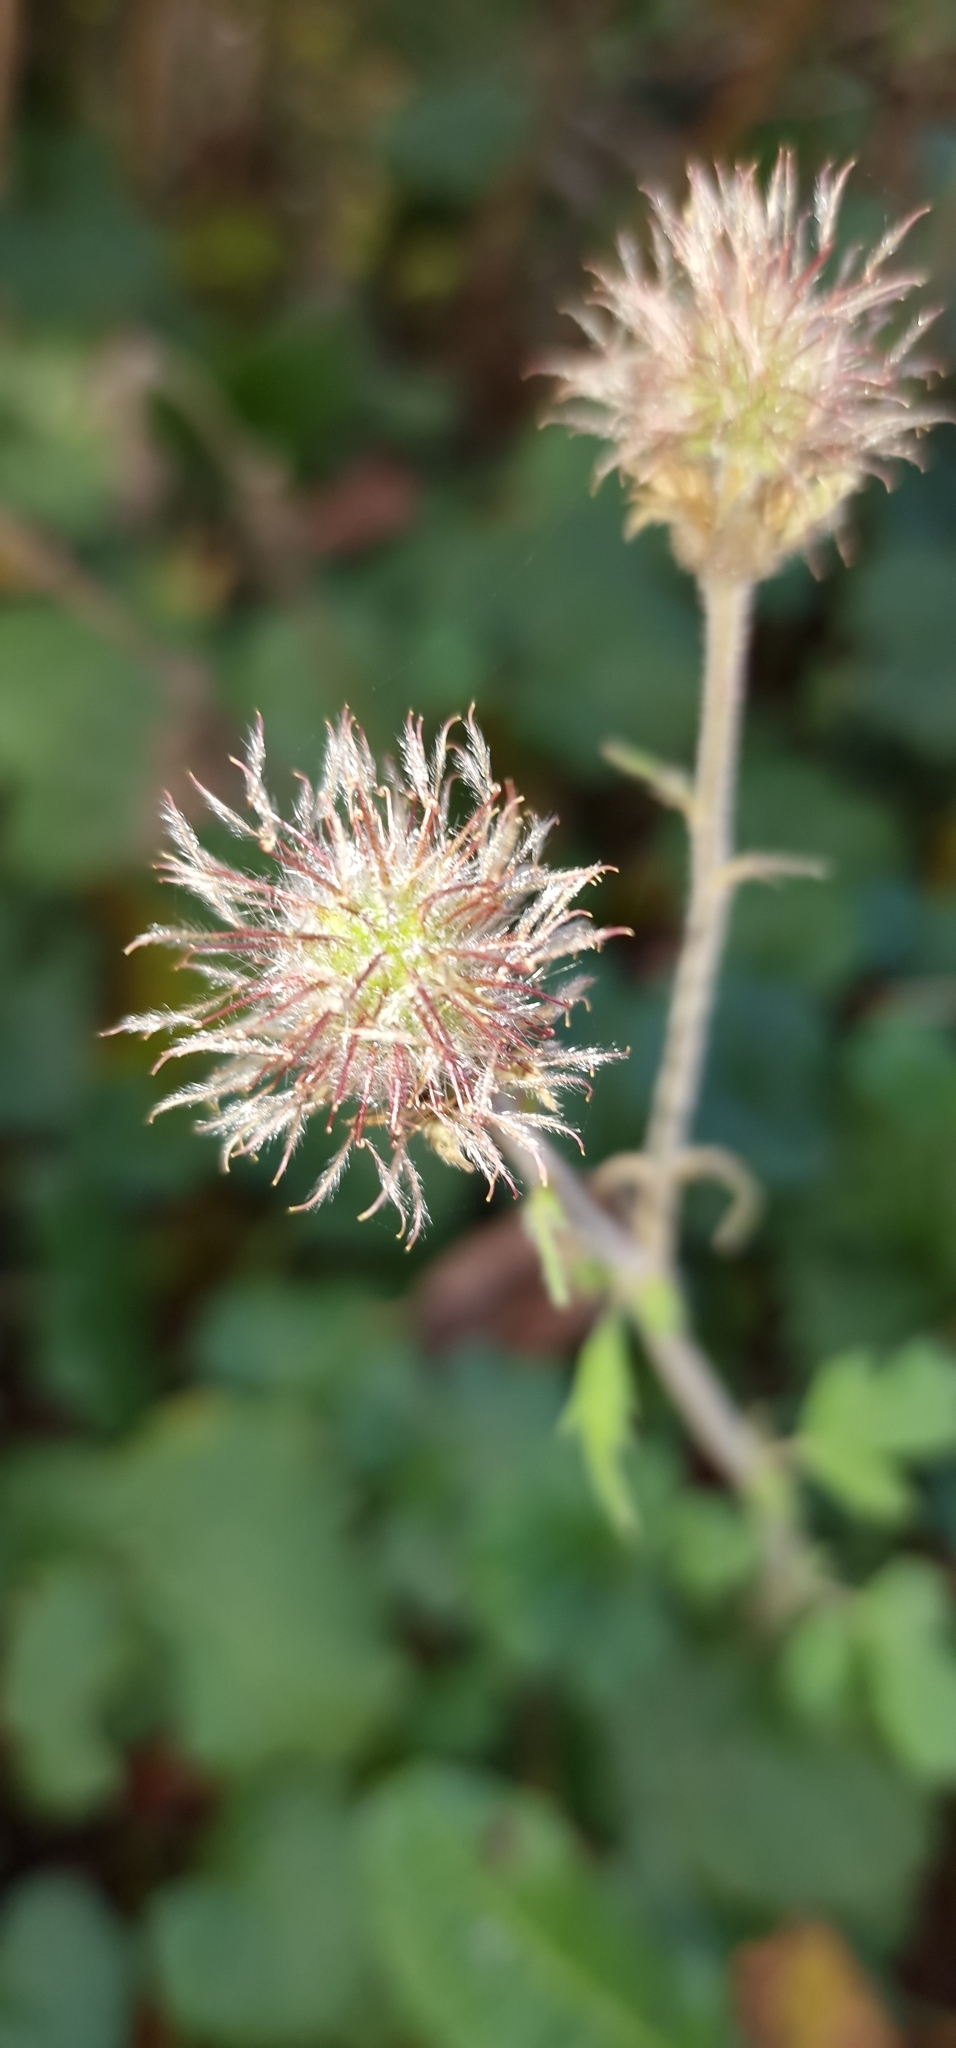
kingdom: Plantae
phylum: Tracheophyta
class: Magnoliopsida
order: Rosales
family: Rosaceae
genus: Geum
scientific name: Geum rivale
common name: Water avens
